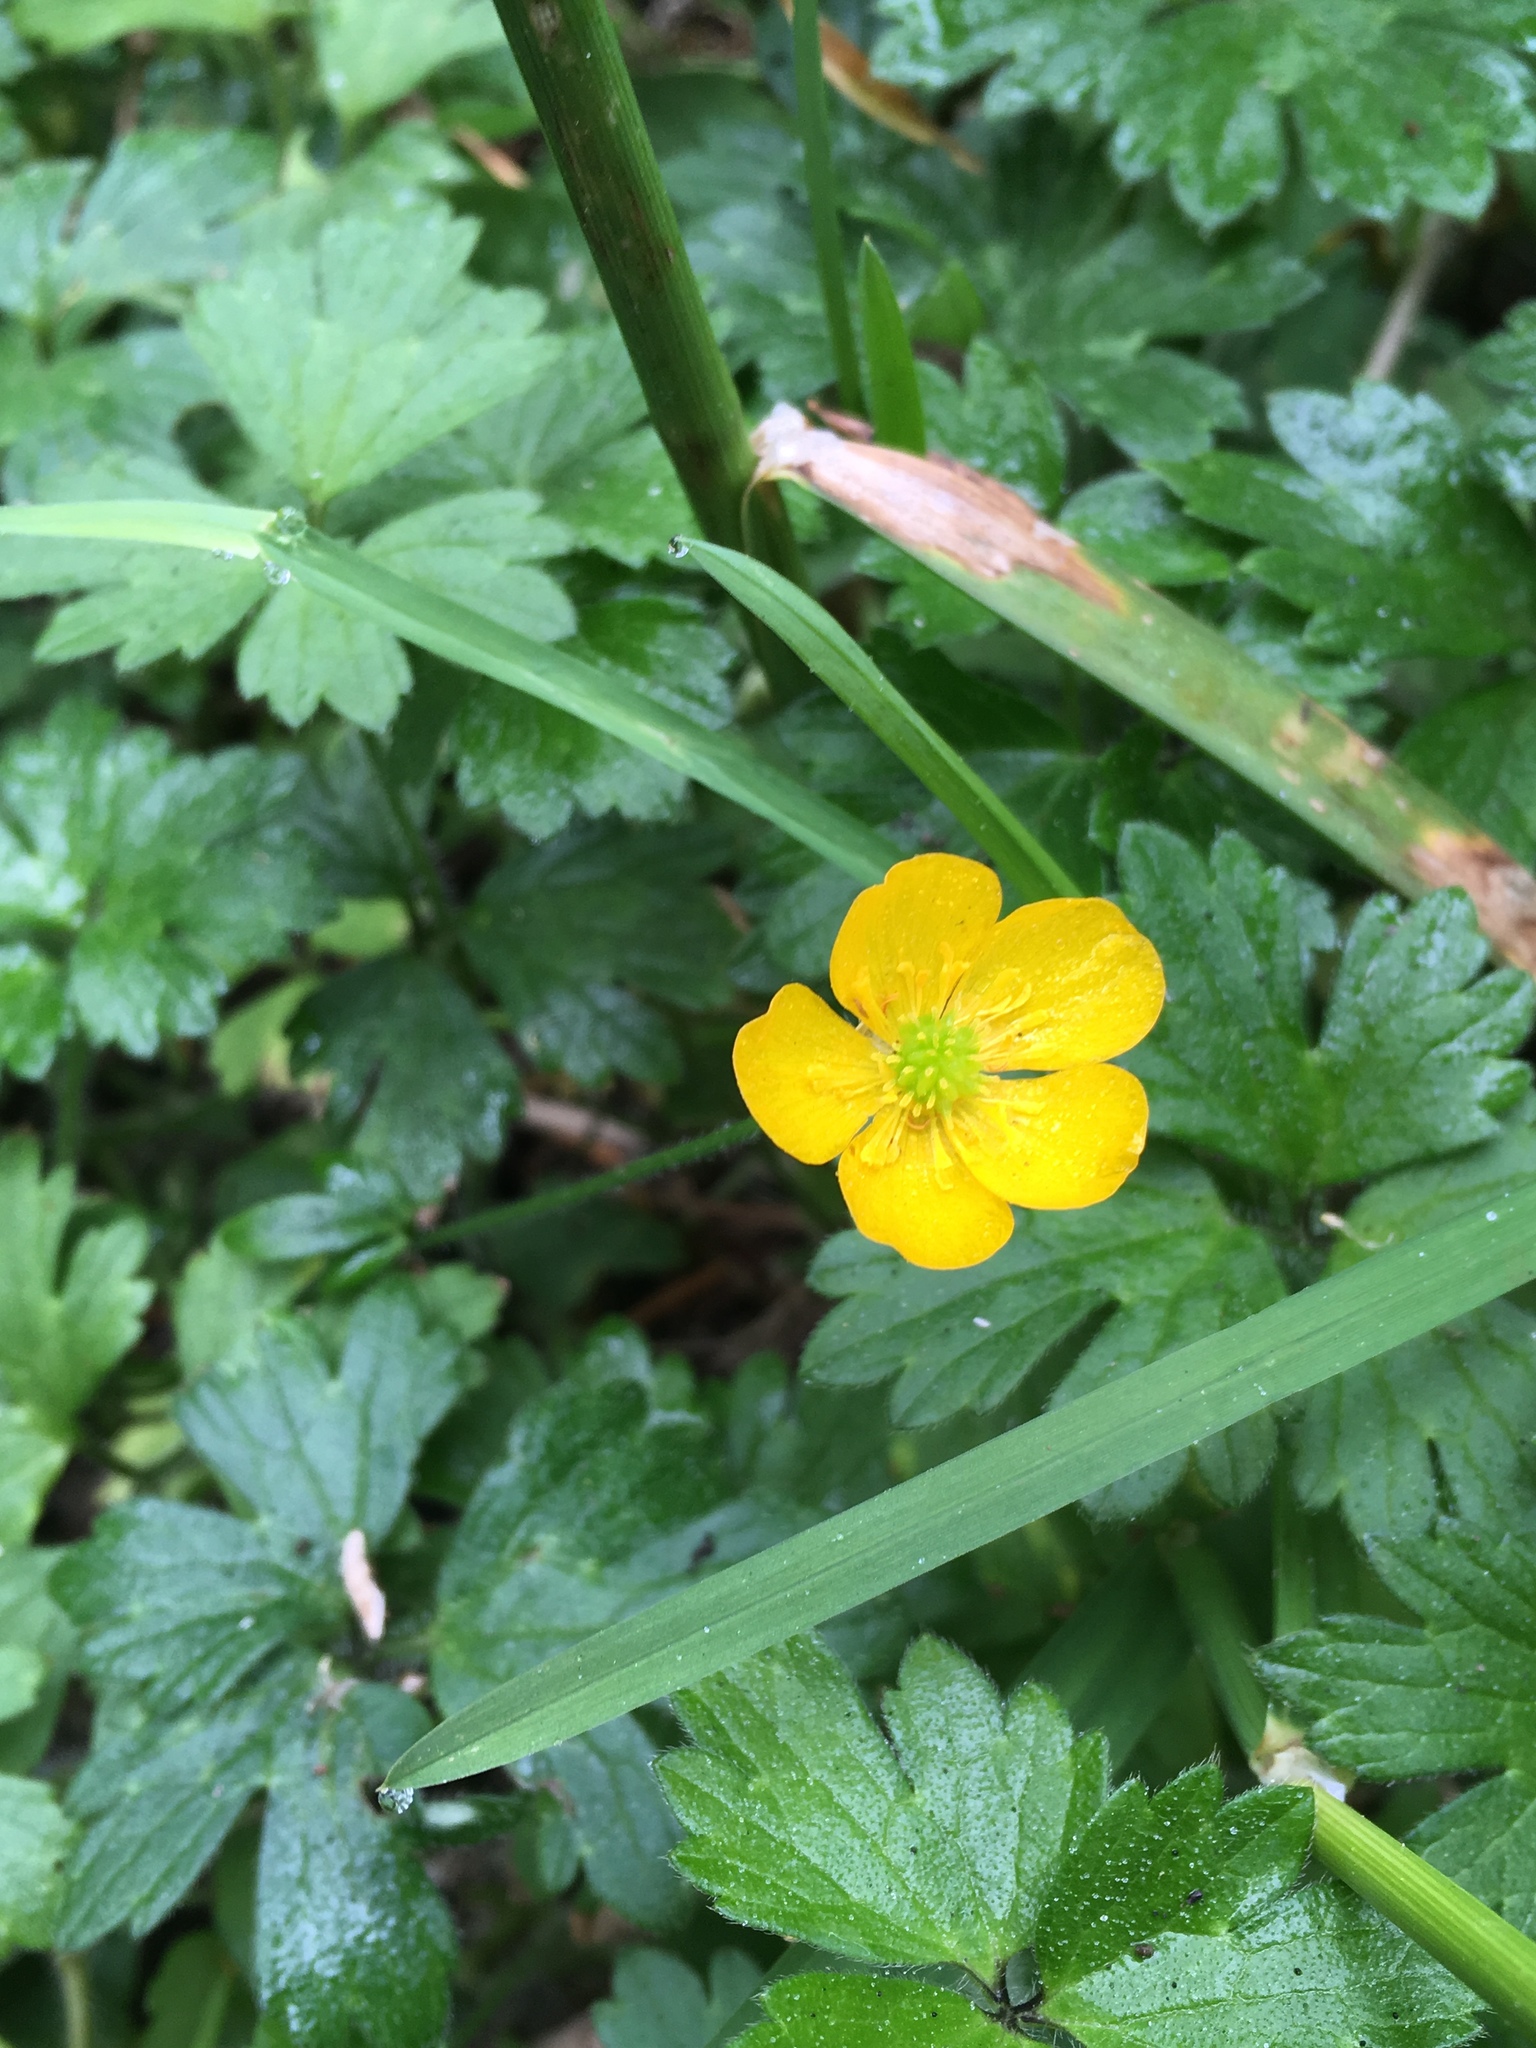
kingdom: Plantae
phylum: Tracheophyta
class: Magnoliopsida
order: Ranunculales
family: Ranunculaceae
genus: Ranunculus
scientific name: Ranunculus repens
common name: Creeping buttercup
